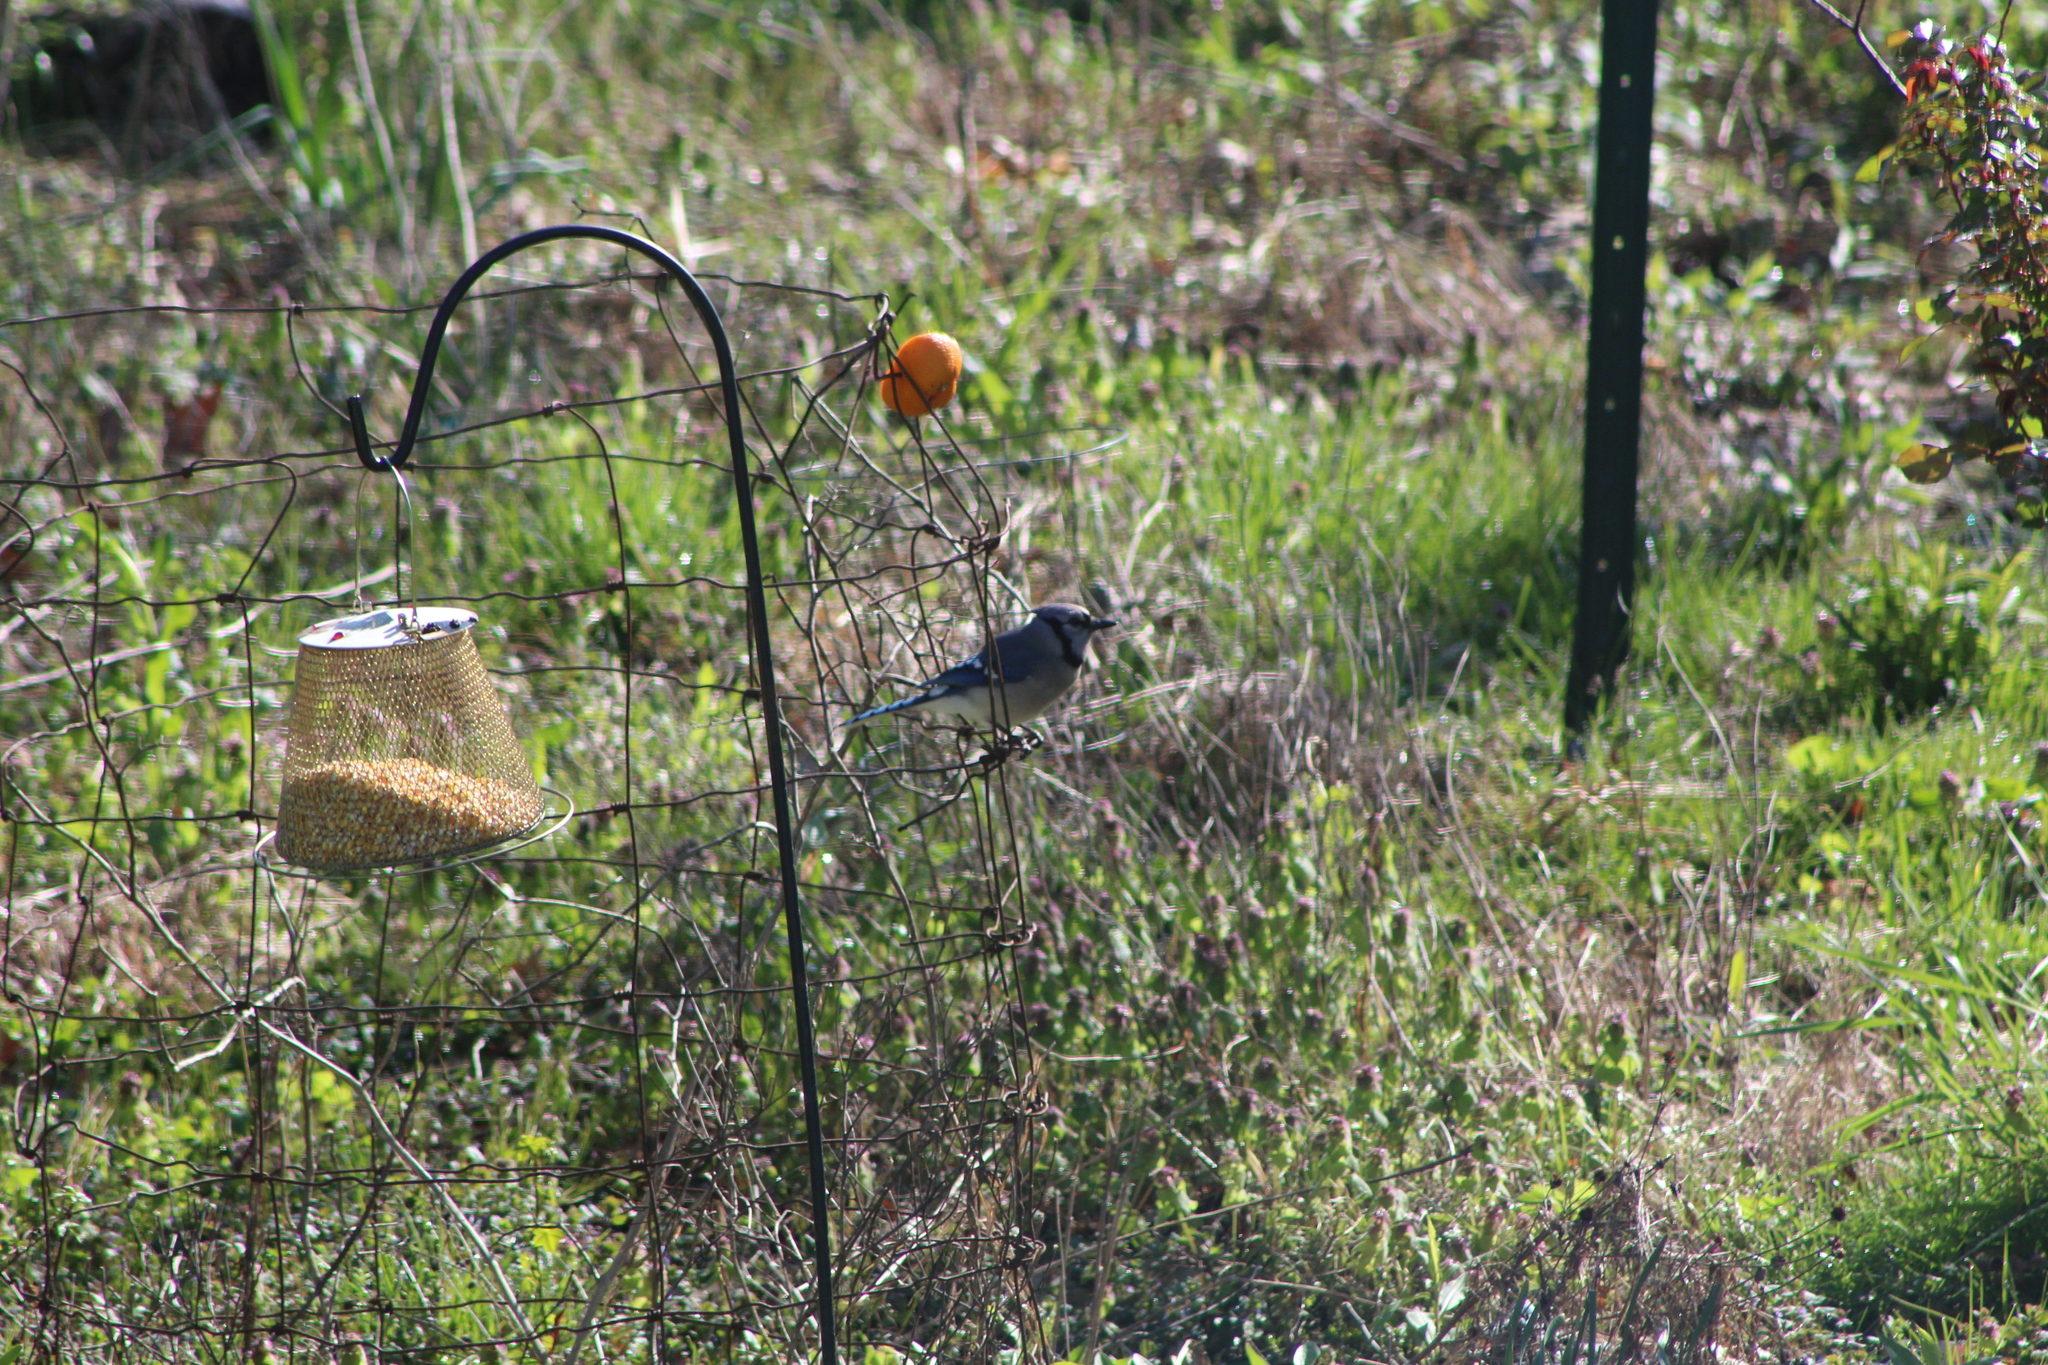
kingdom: Animalia
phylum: Chordata
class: Aves
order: Passeriformes
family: Corvidae
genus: Cyanocitta
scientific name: Cyanocitta cristata
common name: Blue jay
